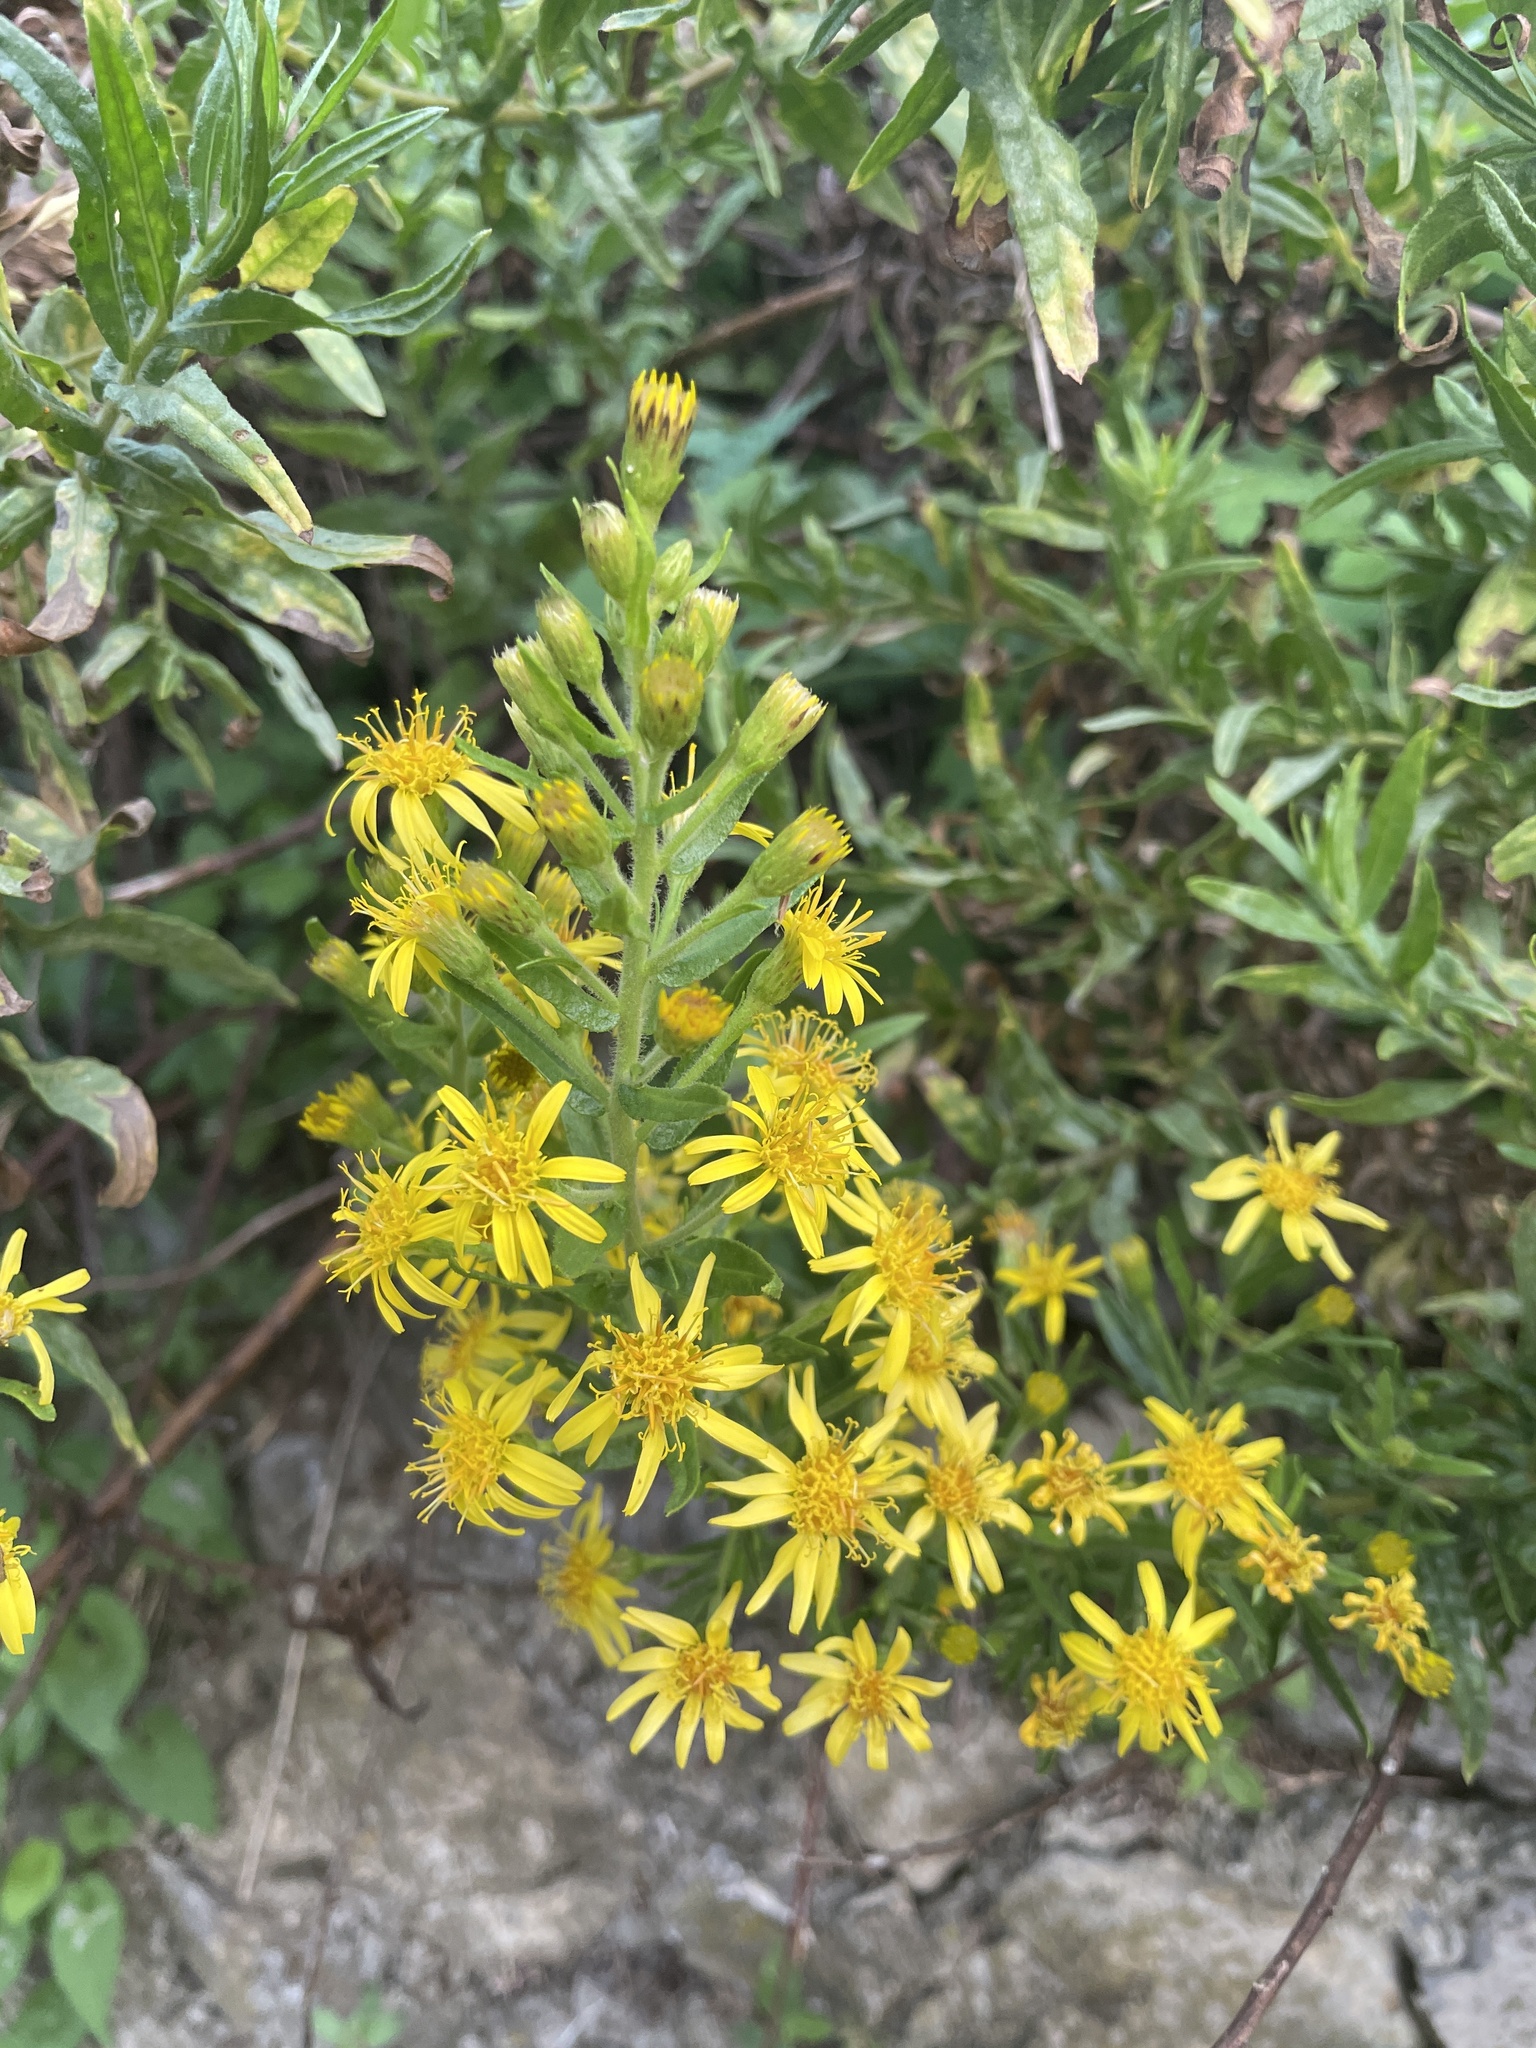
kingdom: Plantae
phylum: Tracheophyta
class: Magnoliopsida
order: Asterales
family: Asteraceae
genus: Dittrichia
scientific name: Dittrichia viscosa
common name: Woody fleabane
